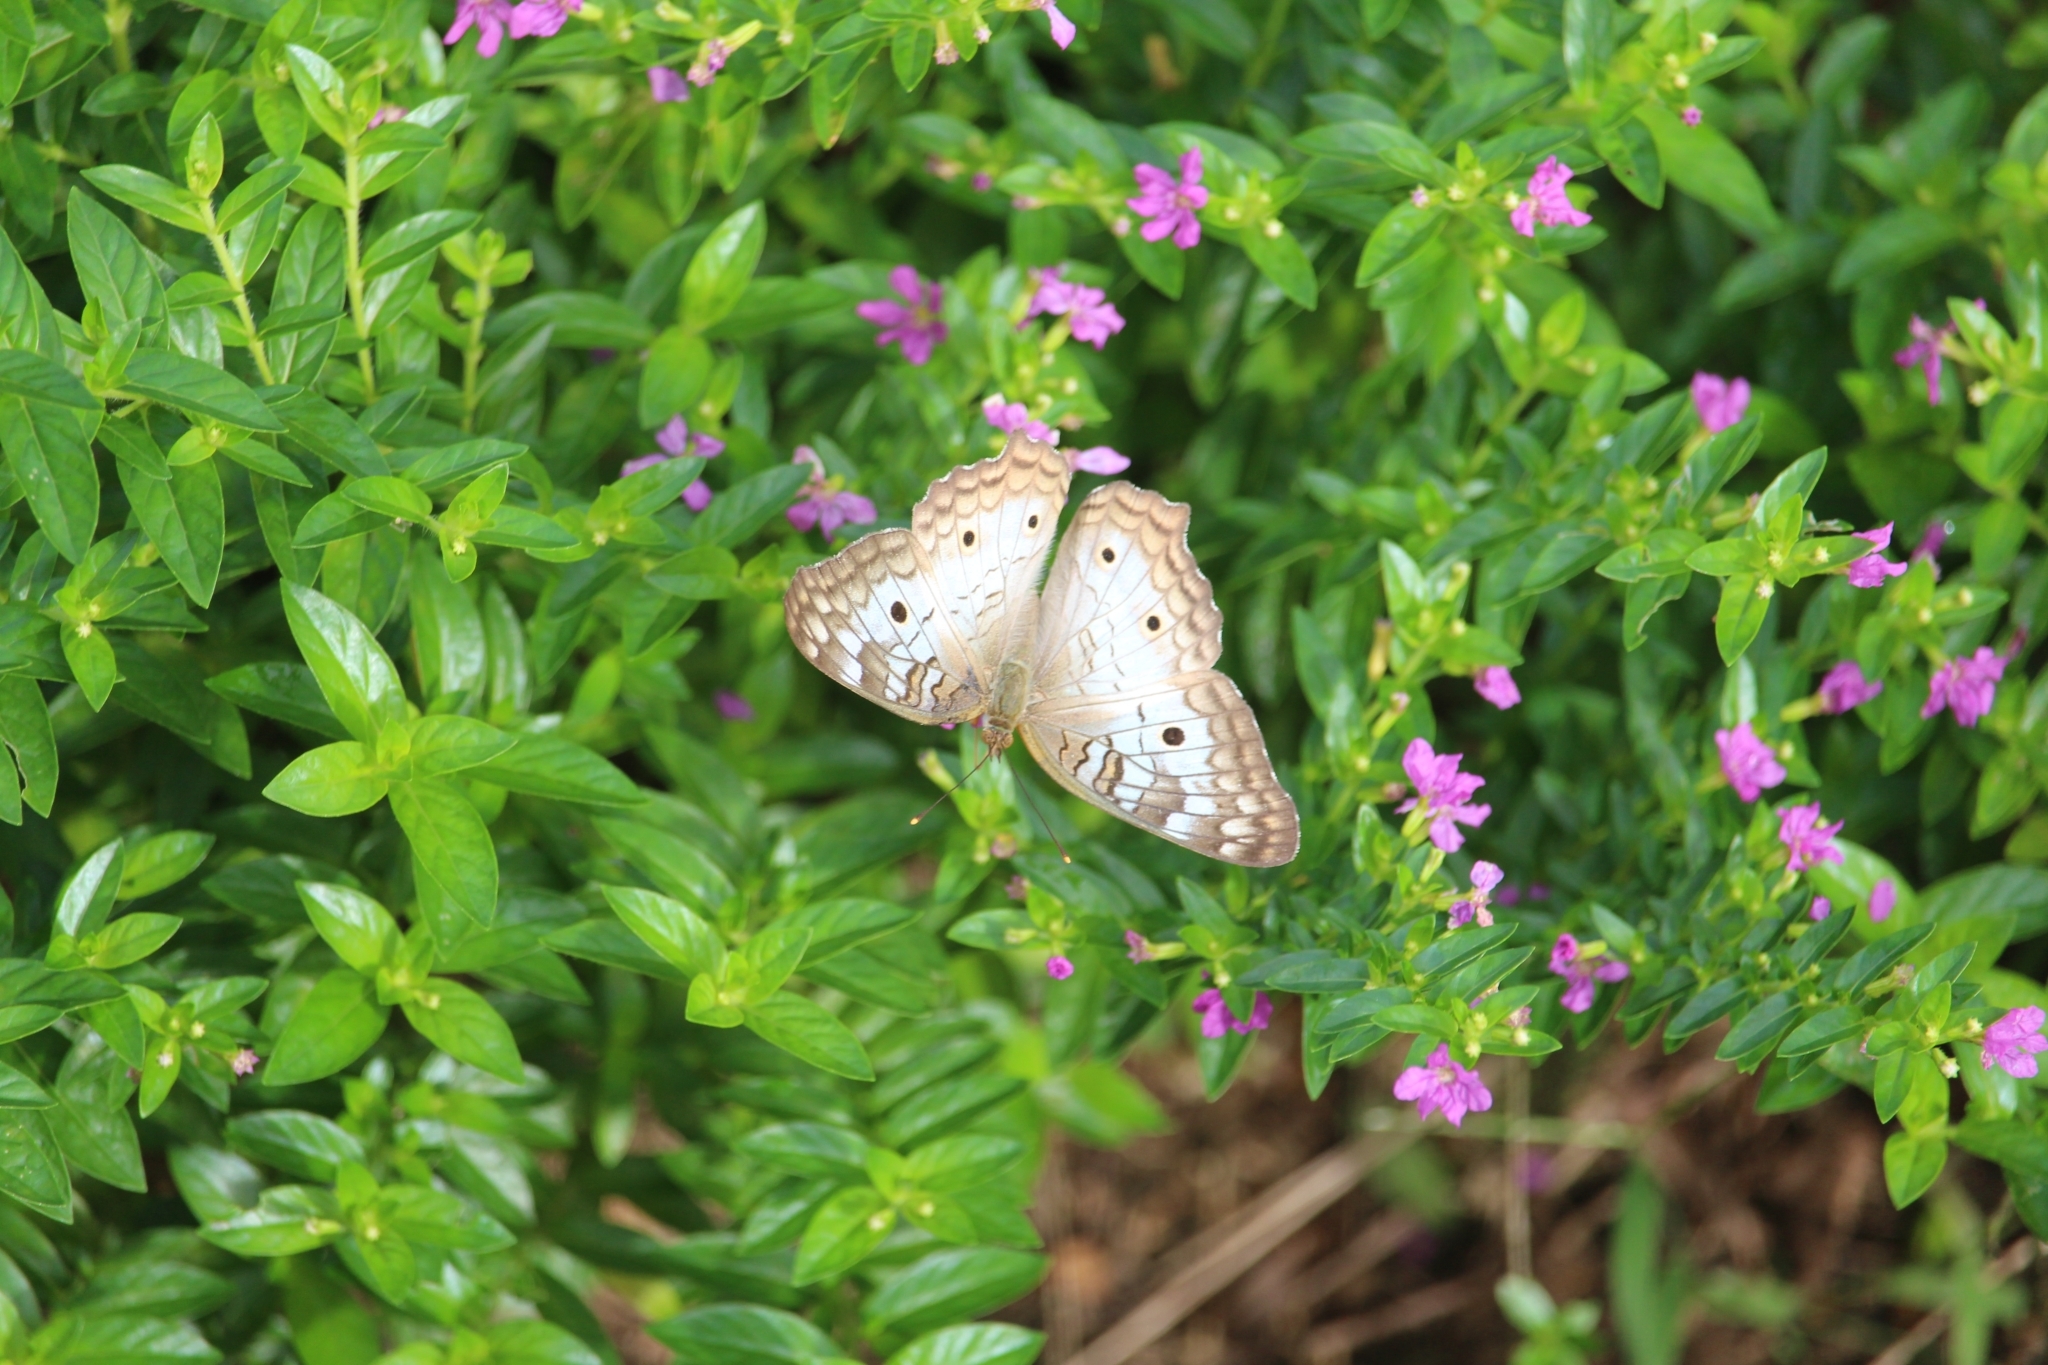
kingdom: Animalia
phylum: Arthropoda
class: Insecta
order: Lepidoptera
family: Nymphalidae
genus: Anartia
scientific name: Anartia jatrophae
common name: White peacock
